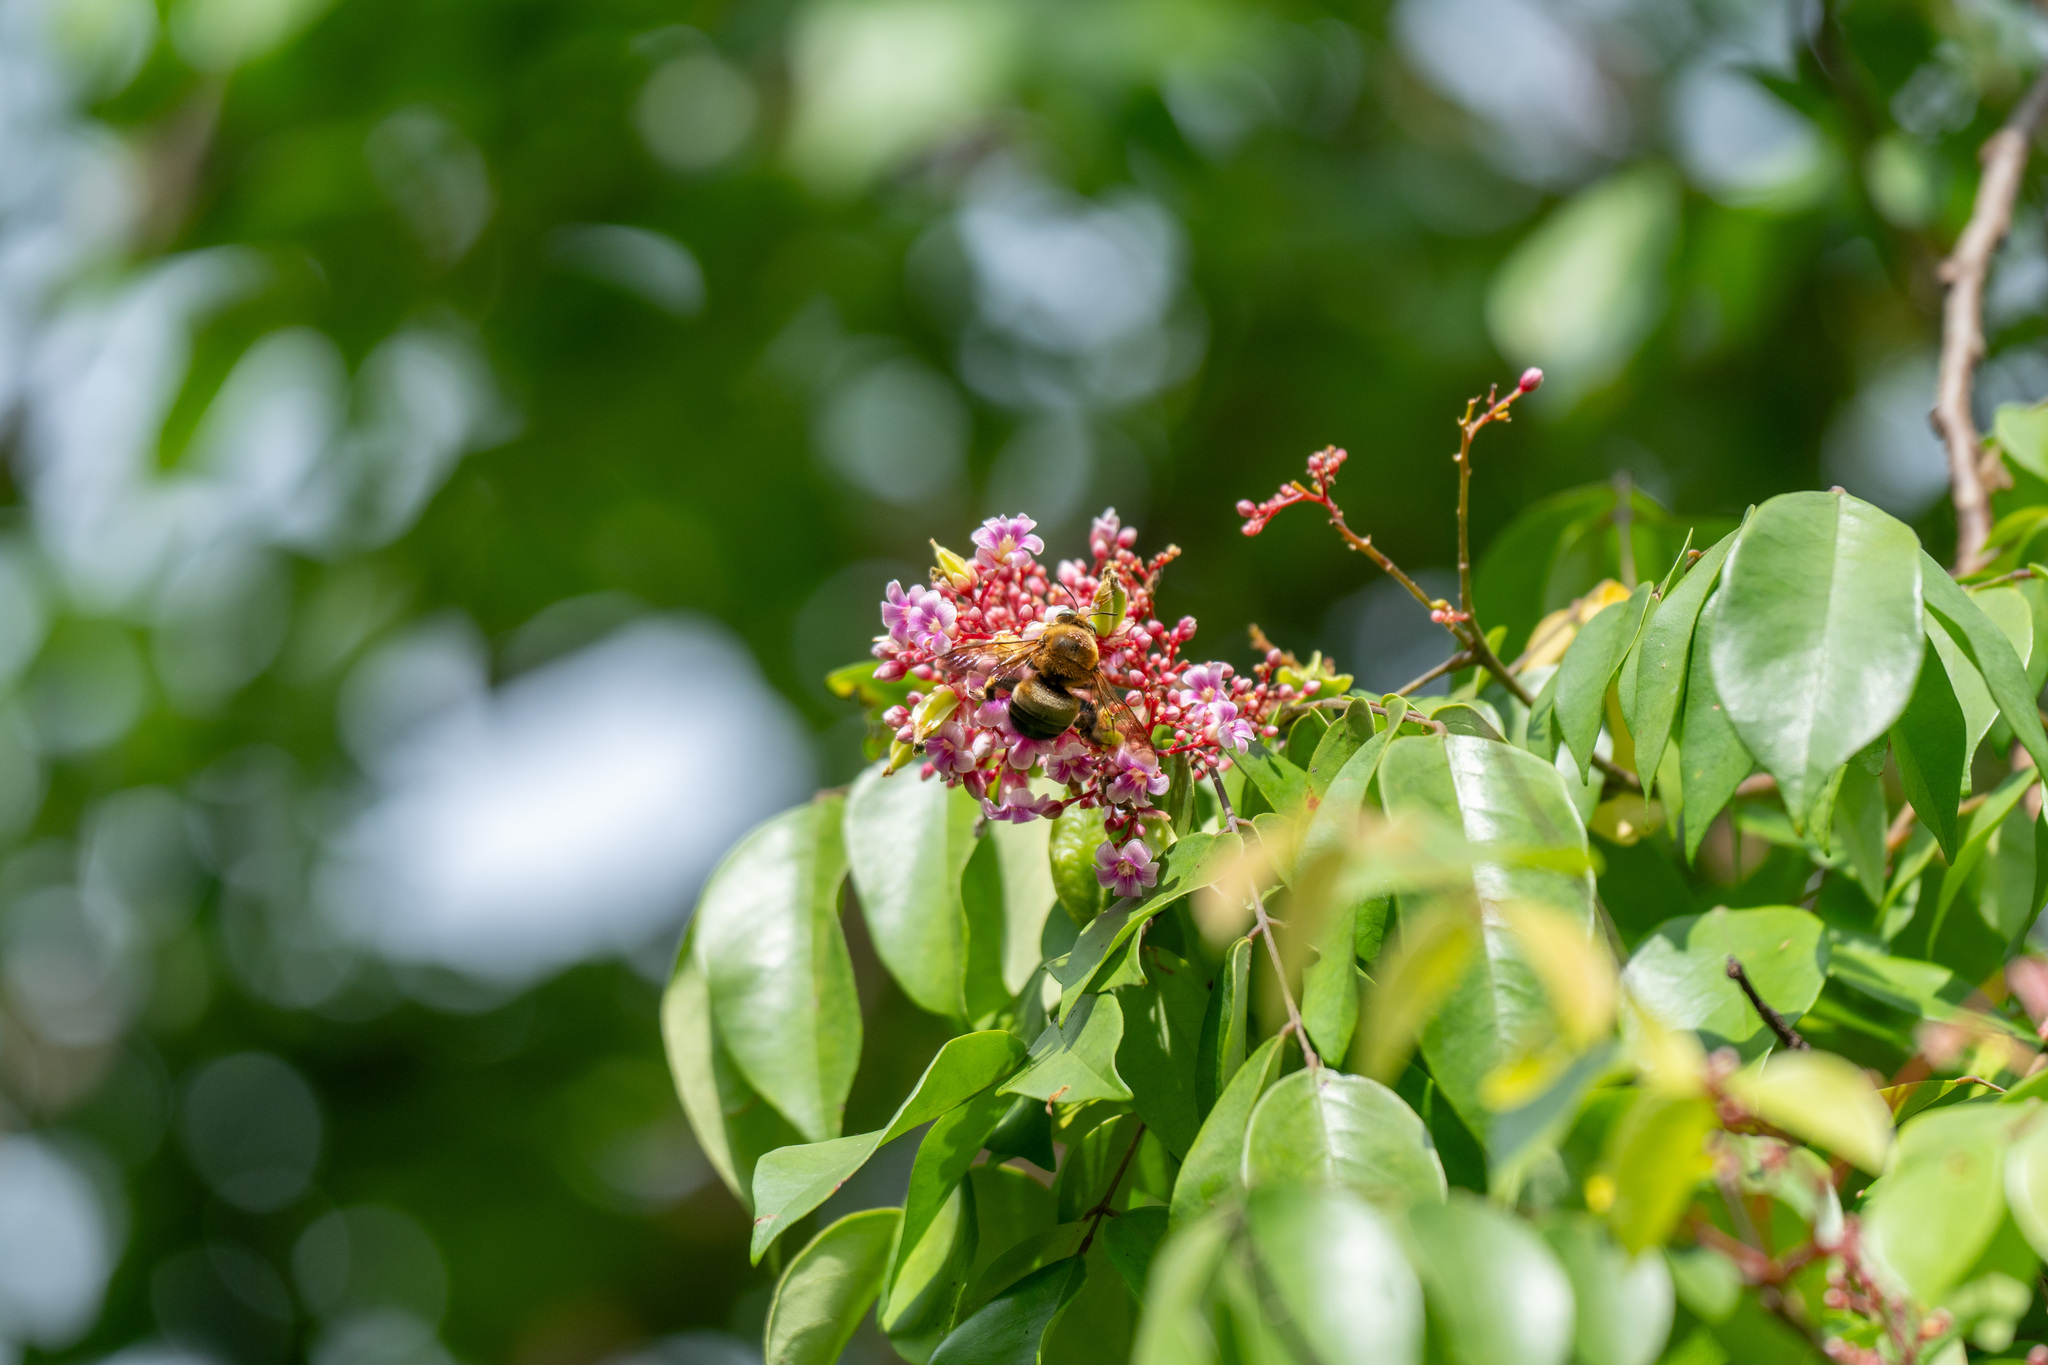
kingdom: Animalia
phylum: Arthropoda
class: Insecta
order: Hymenoptera
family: Apidae
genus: Xylocopa
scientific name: Xylocopa dejeanii
